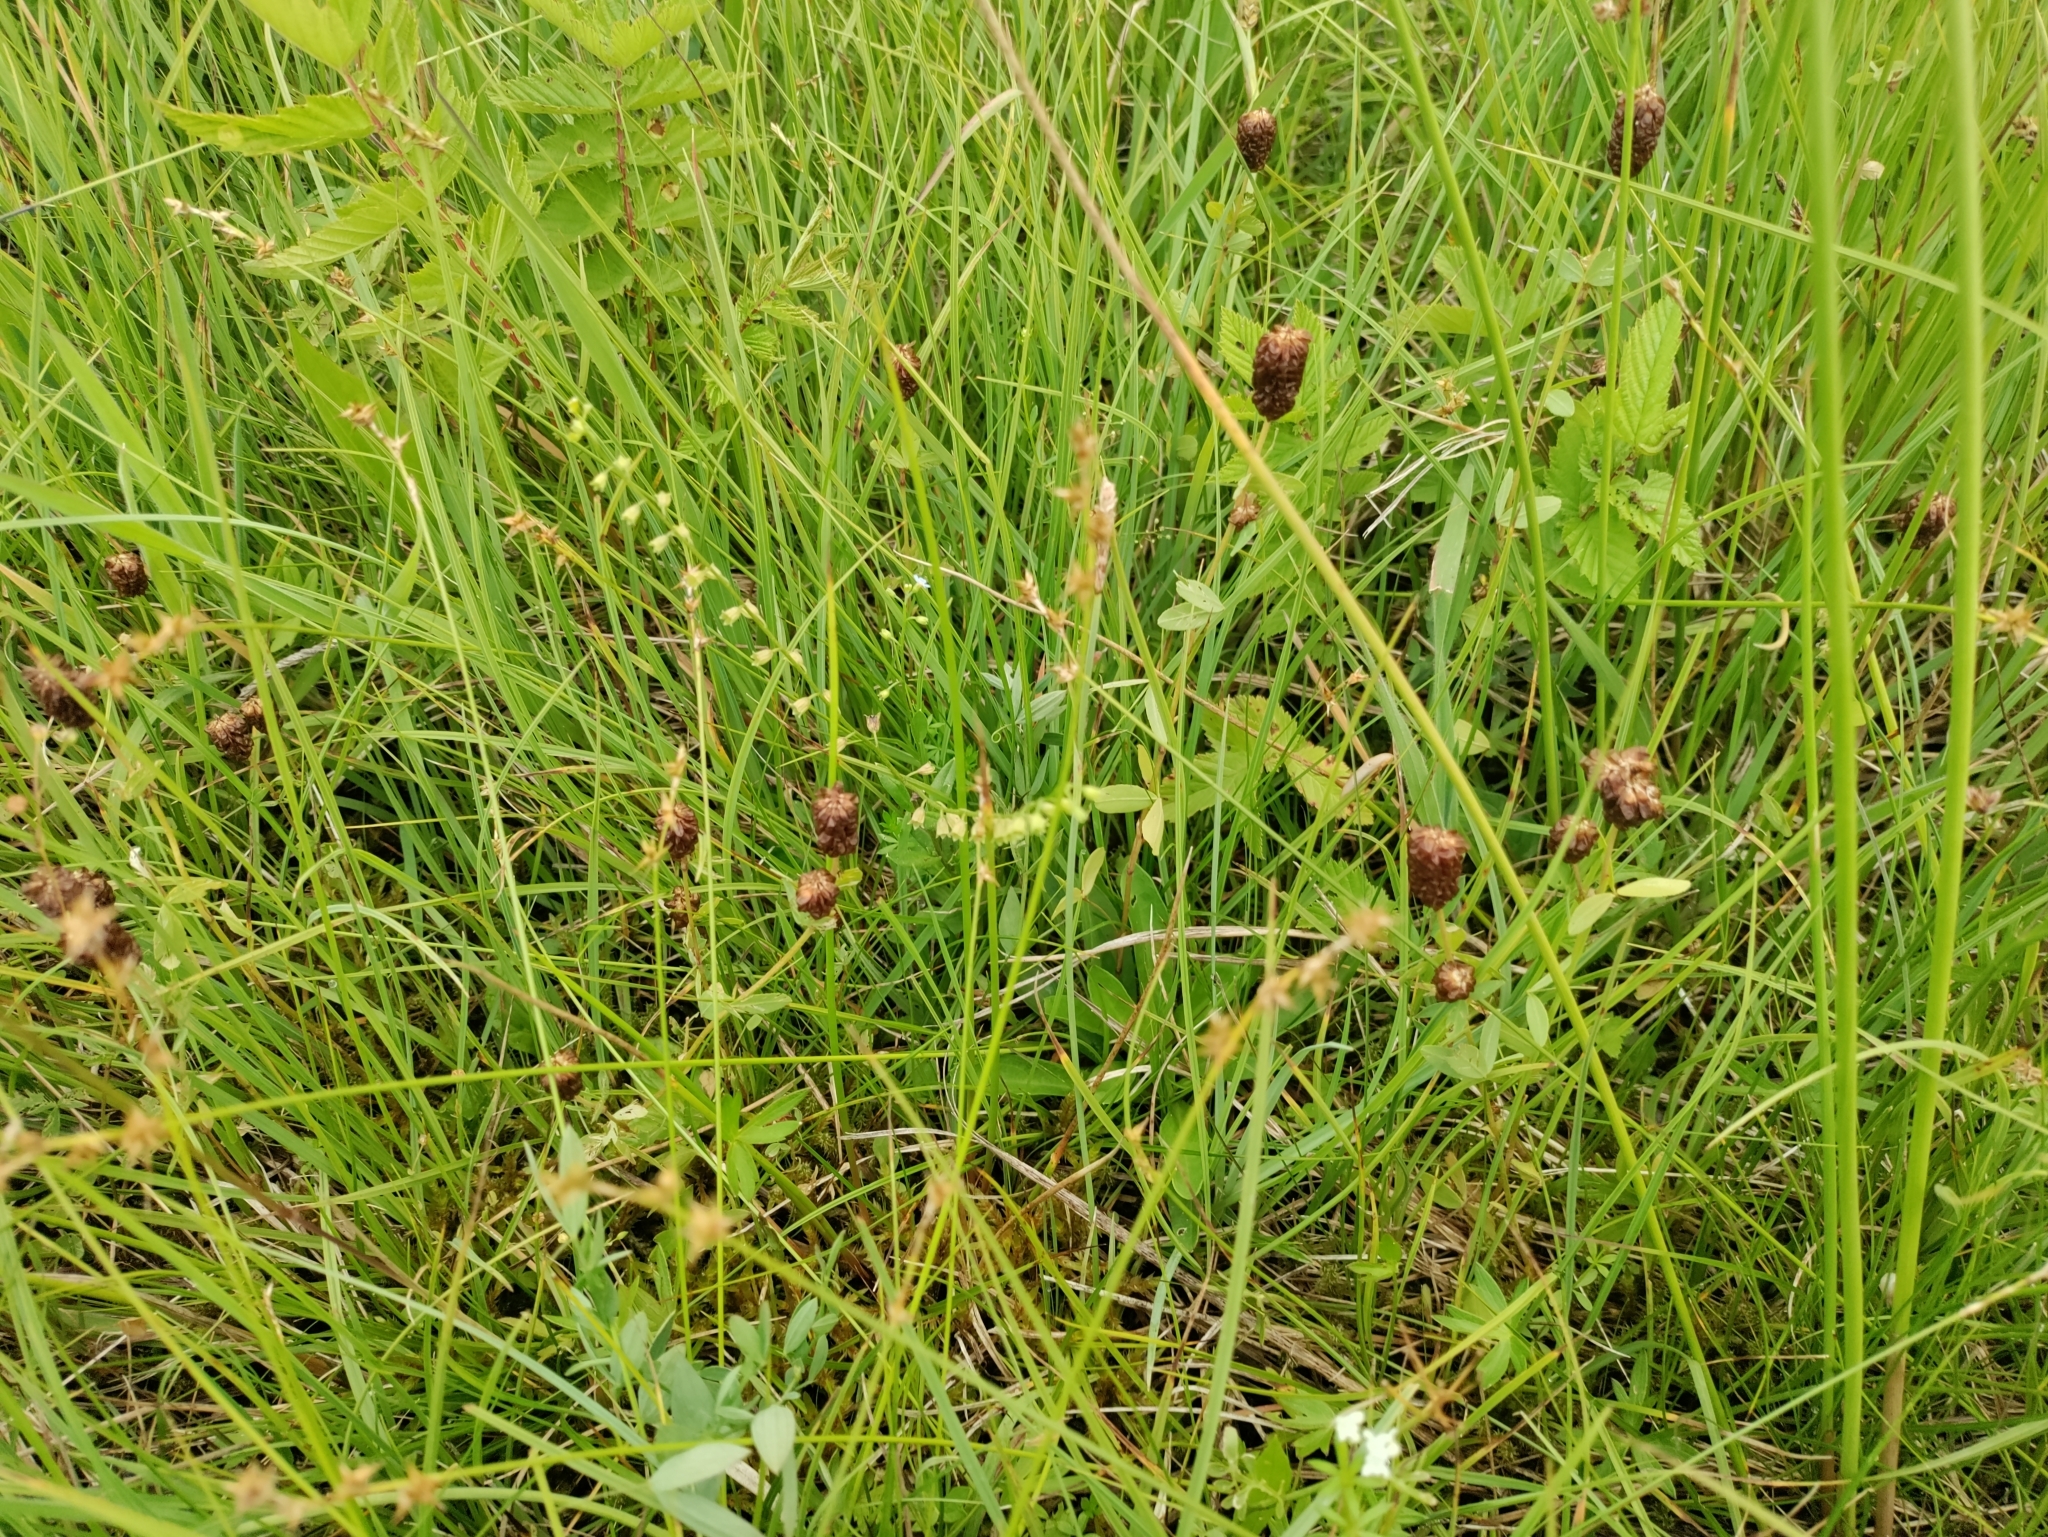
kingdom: Plantae
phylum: Tracheophyta
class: Magnoliopsida
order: Fabales
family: Fabaceae
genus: Trifolium
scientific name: Trifolium spadiceum
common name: Brown moor clover
